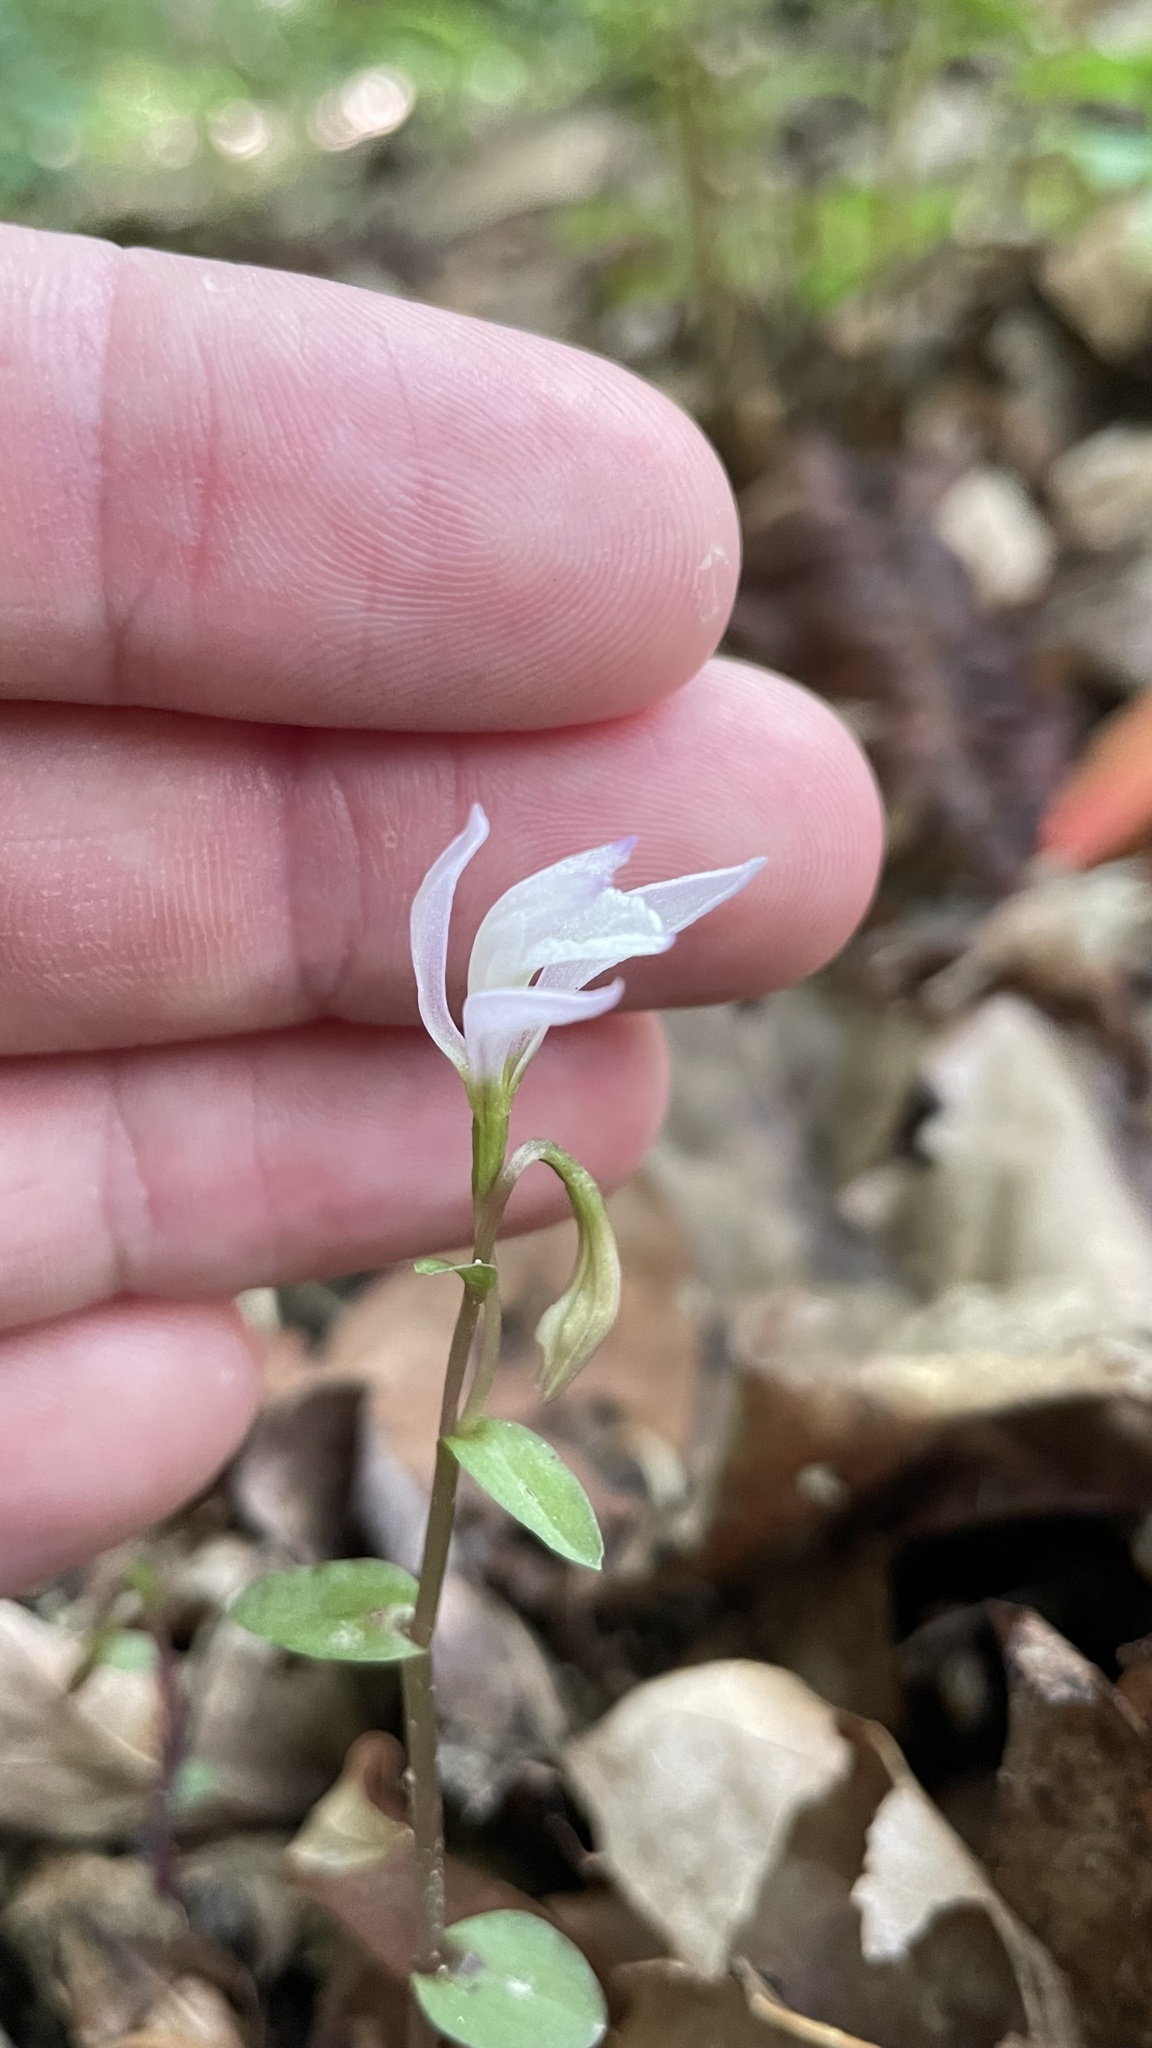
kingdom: Plantae
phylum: Tracheophyta
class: Liliopsida
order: Asparagales
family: Orchidaceae
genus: Triphora
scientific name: Triphora trianthophoros
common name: Three birds orchid
